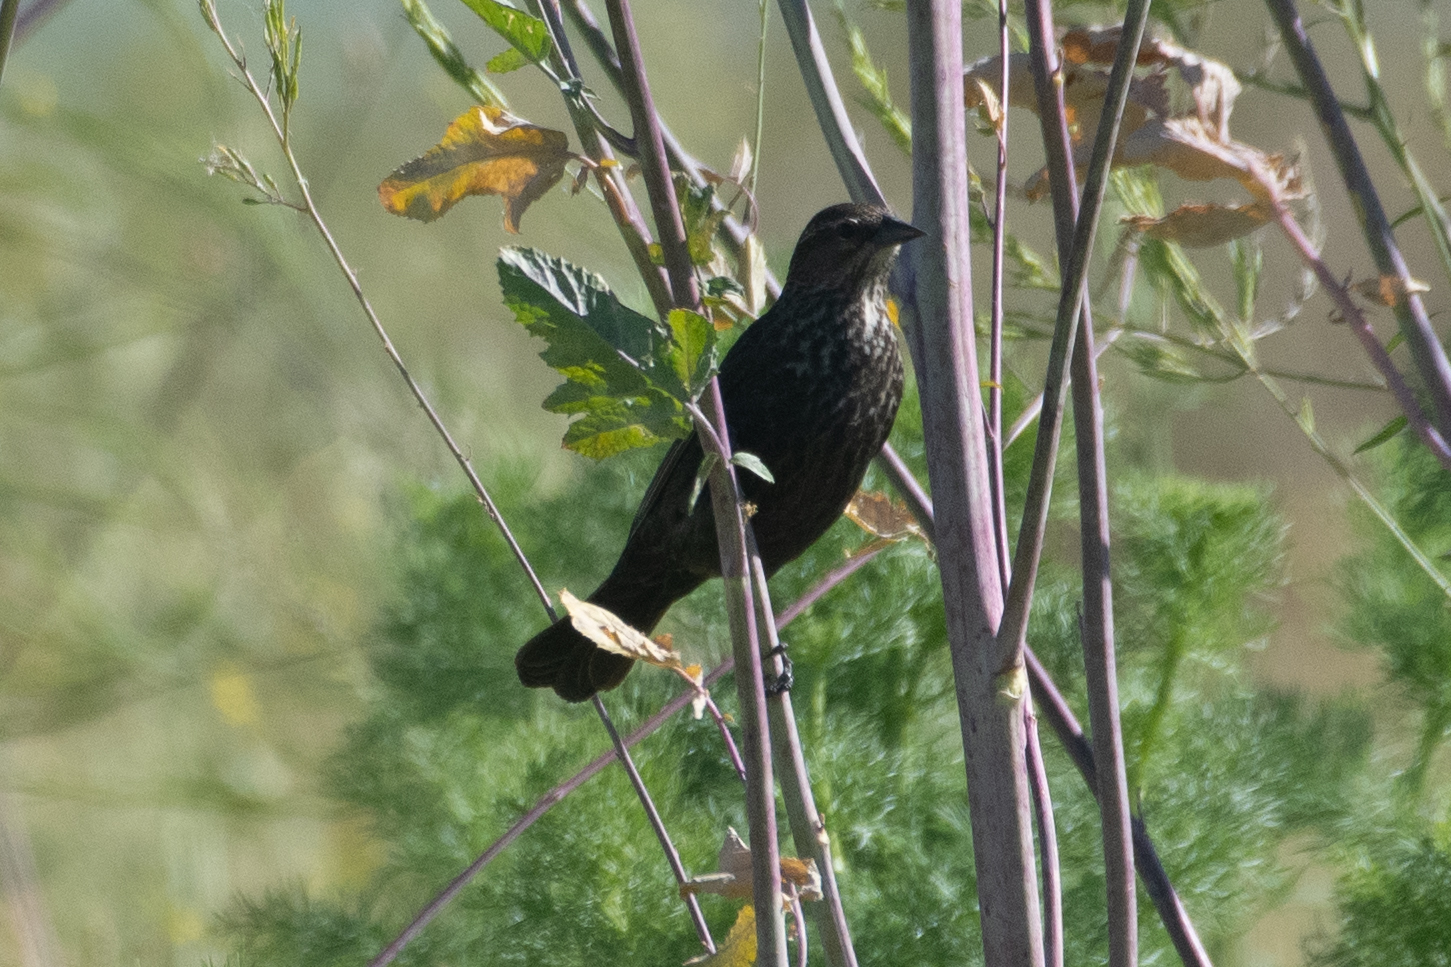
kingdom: Animalia
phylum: Chordata
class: Aves
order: Passeriformes
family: Icteridae
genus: Agelaius
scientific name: Agelaius phoeniceus
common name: Red-winged blackbird
